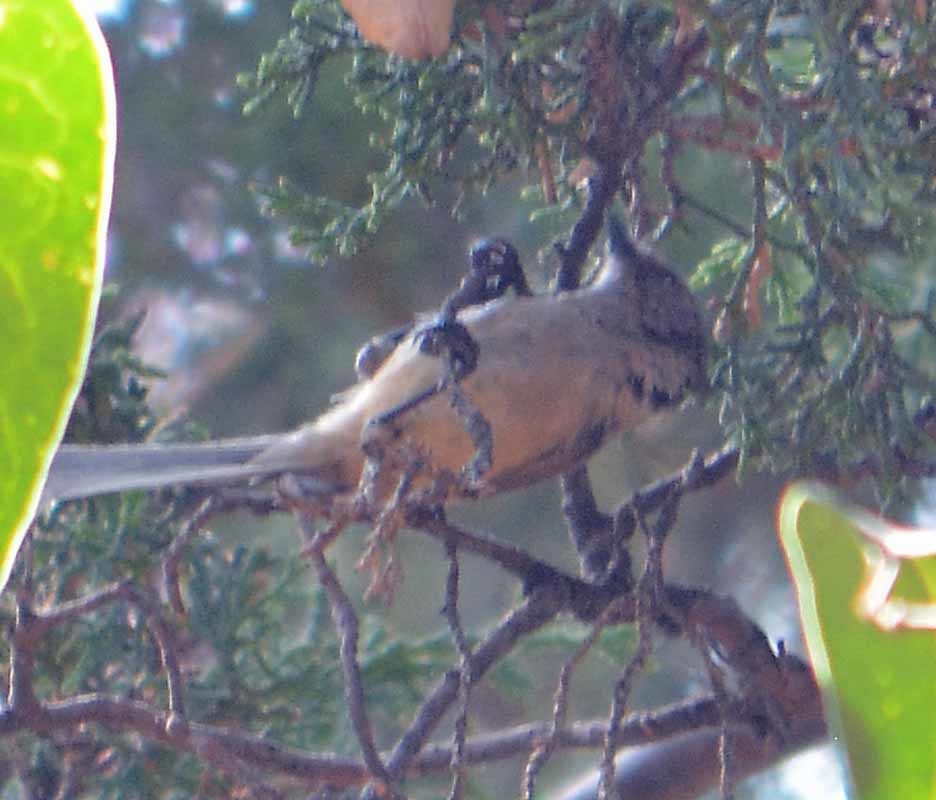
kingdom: Animalia
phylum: Chordata
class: Aves
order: Passeriformes
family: Aegithalidae
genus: Psaltriparus
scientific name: Psaltriparus minimus
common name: American bushtit
